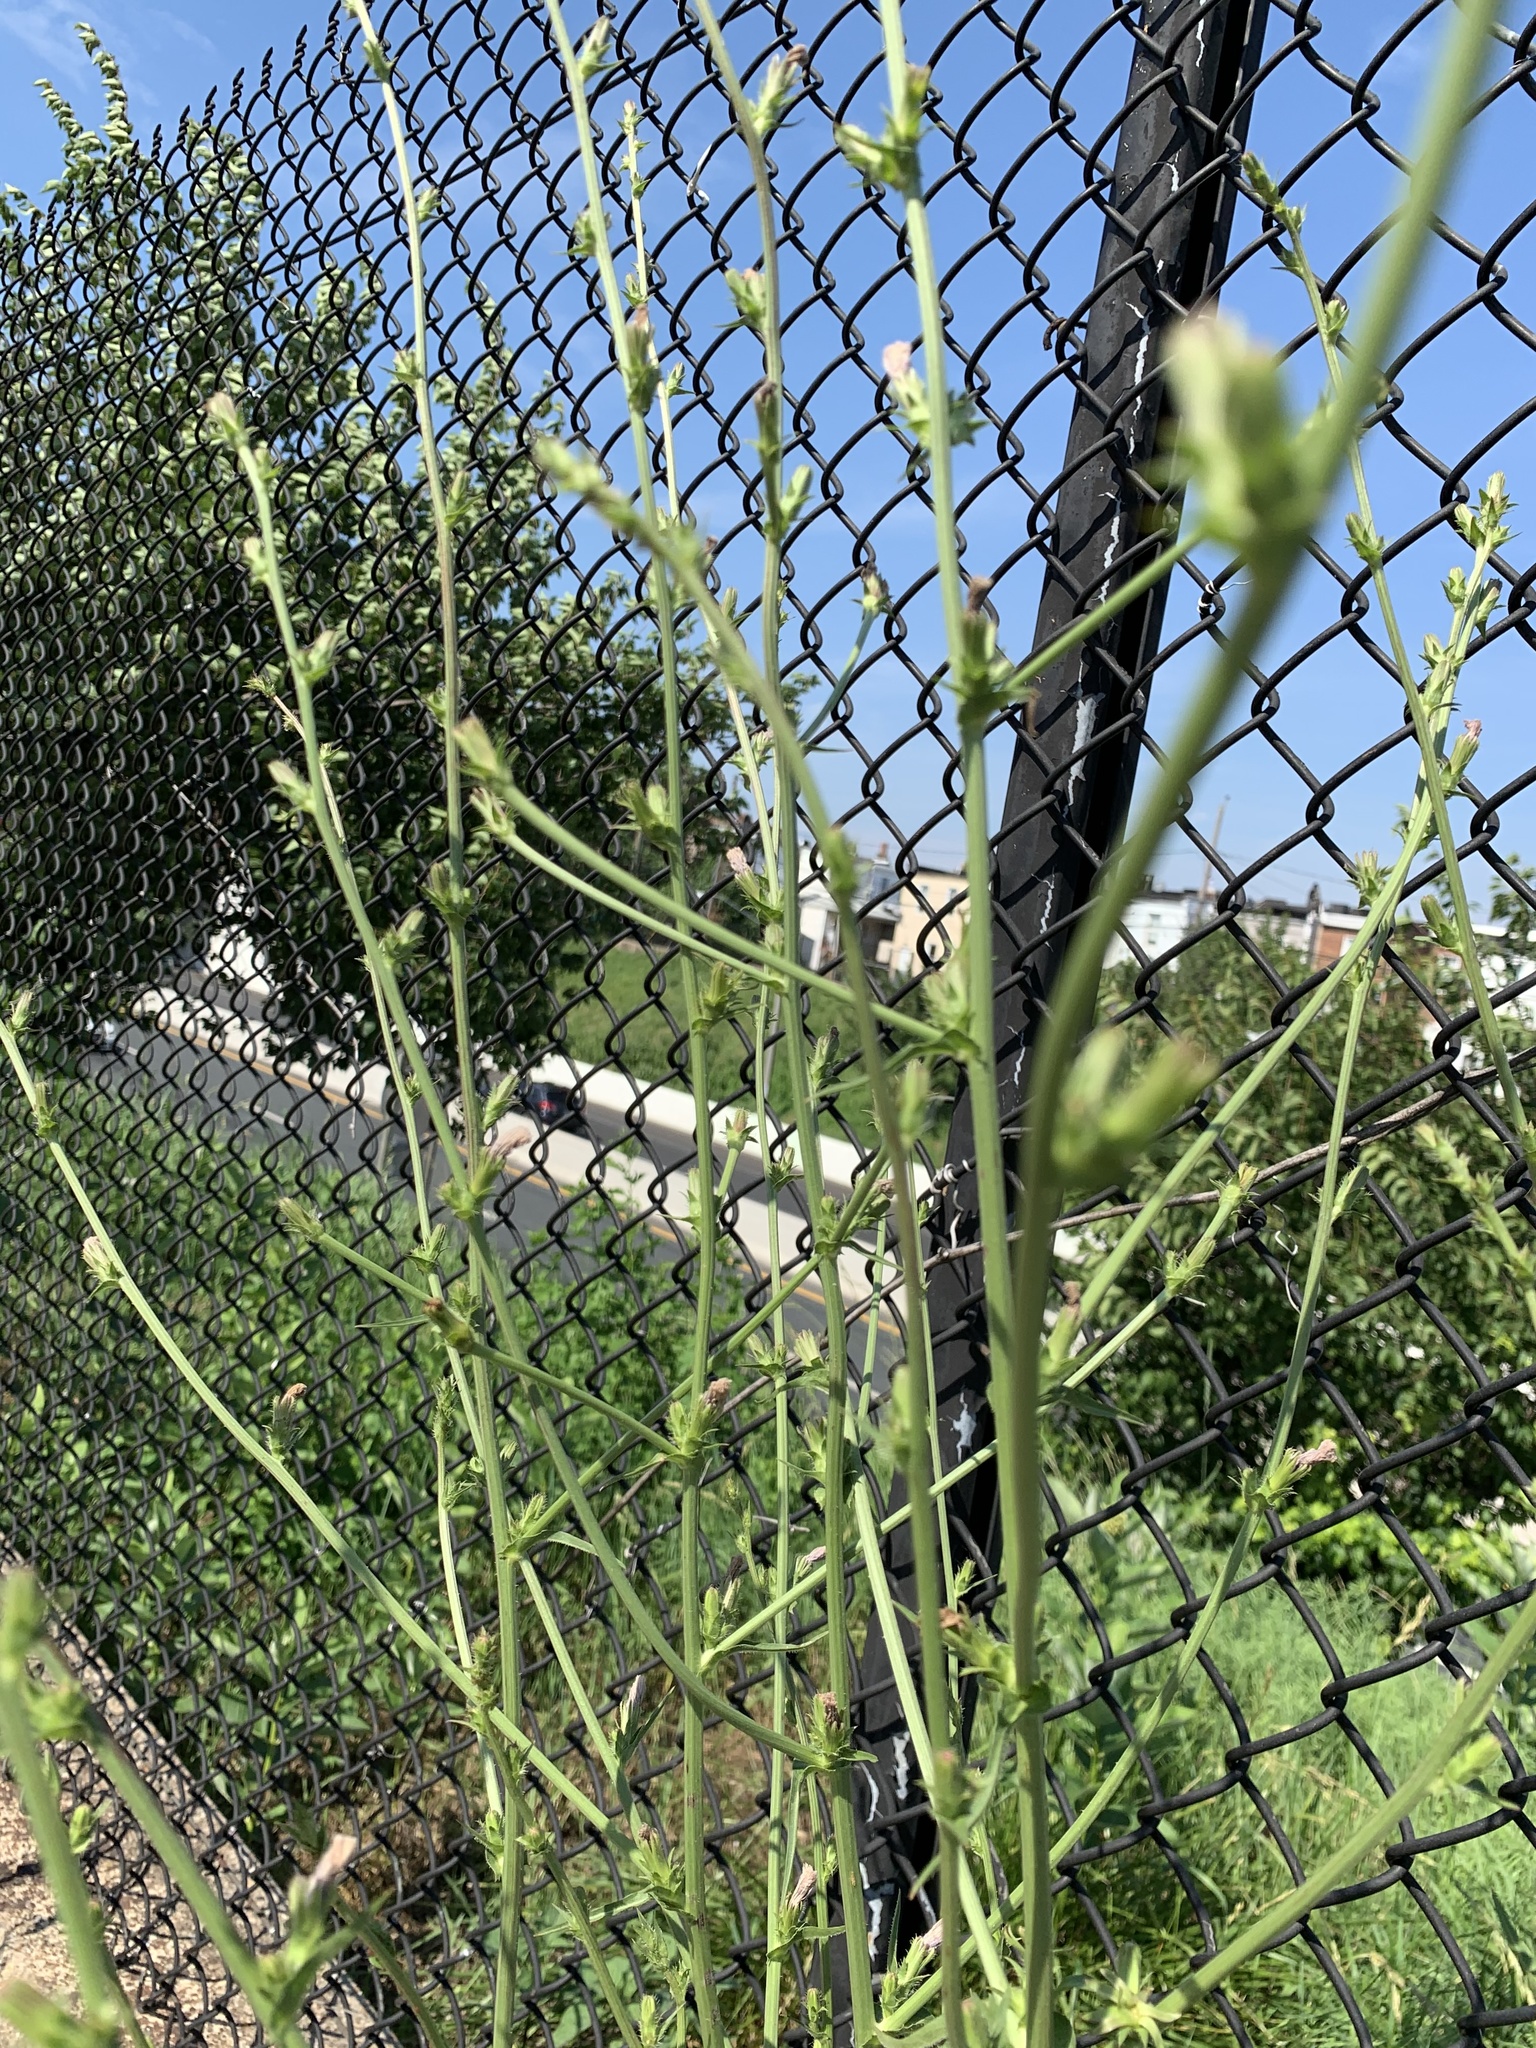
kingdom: Plantae
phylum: Tracheophyta
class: Magnoliopsida
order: Asterales
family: Asteraceae
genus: Cichorium
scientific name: Cichorium intybus
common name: Chicory
